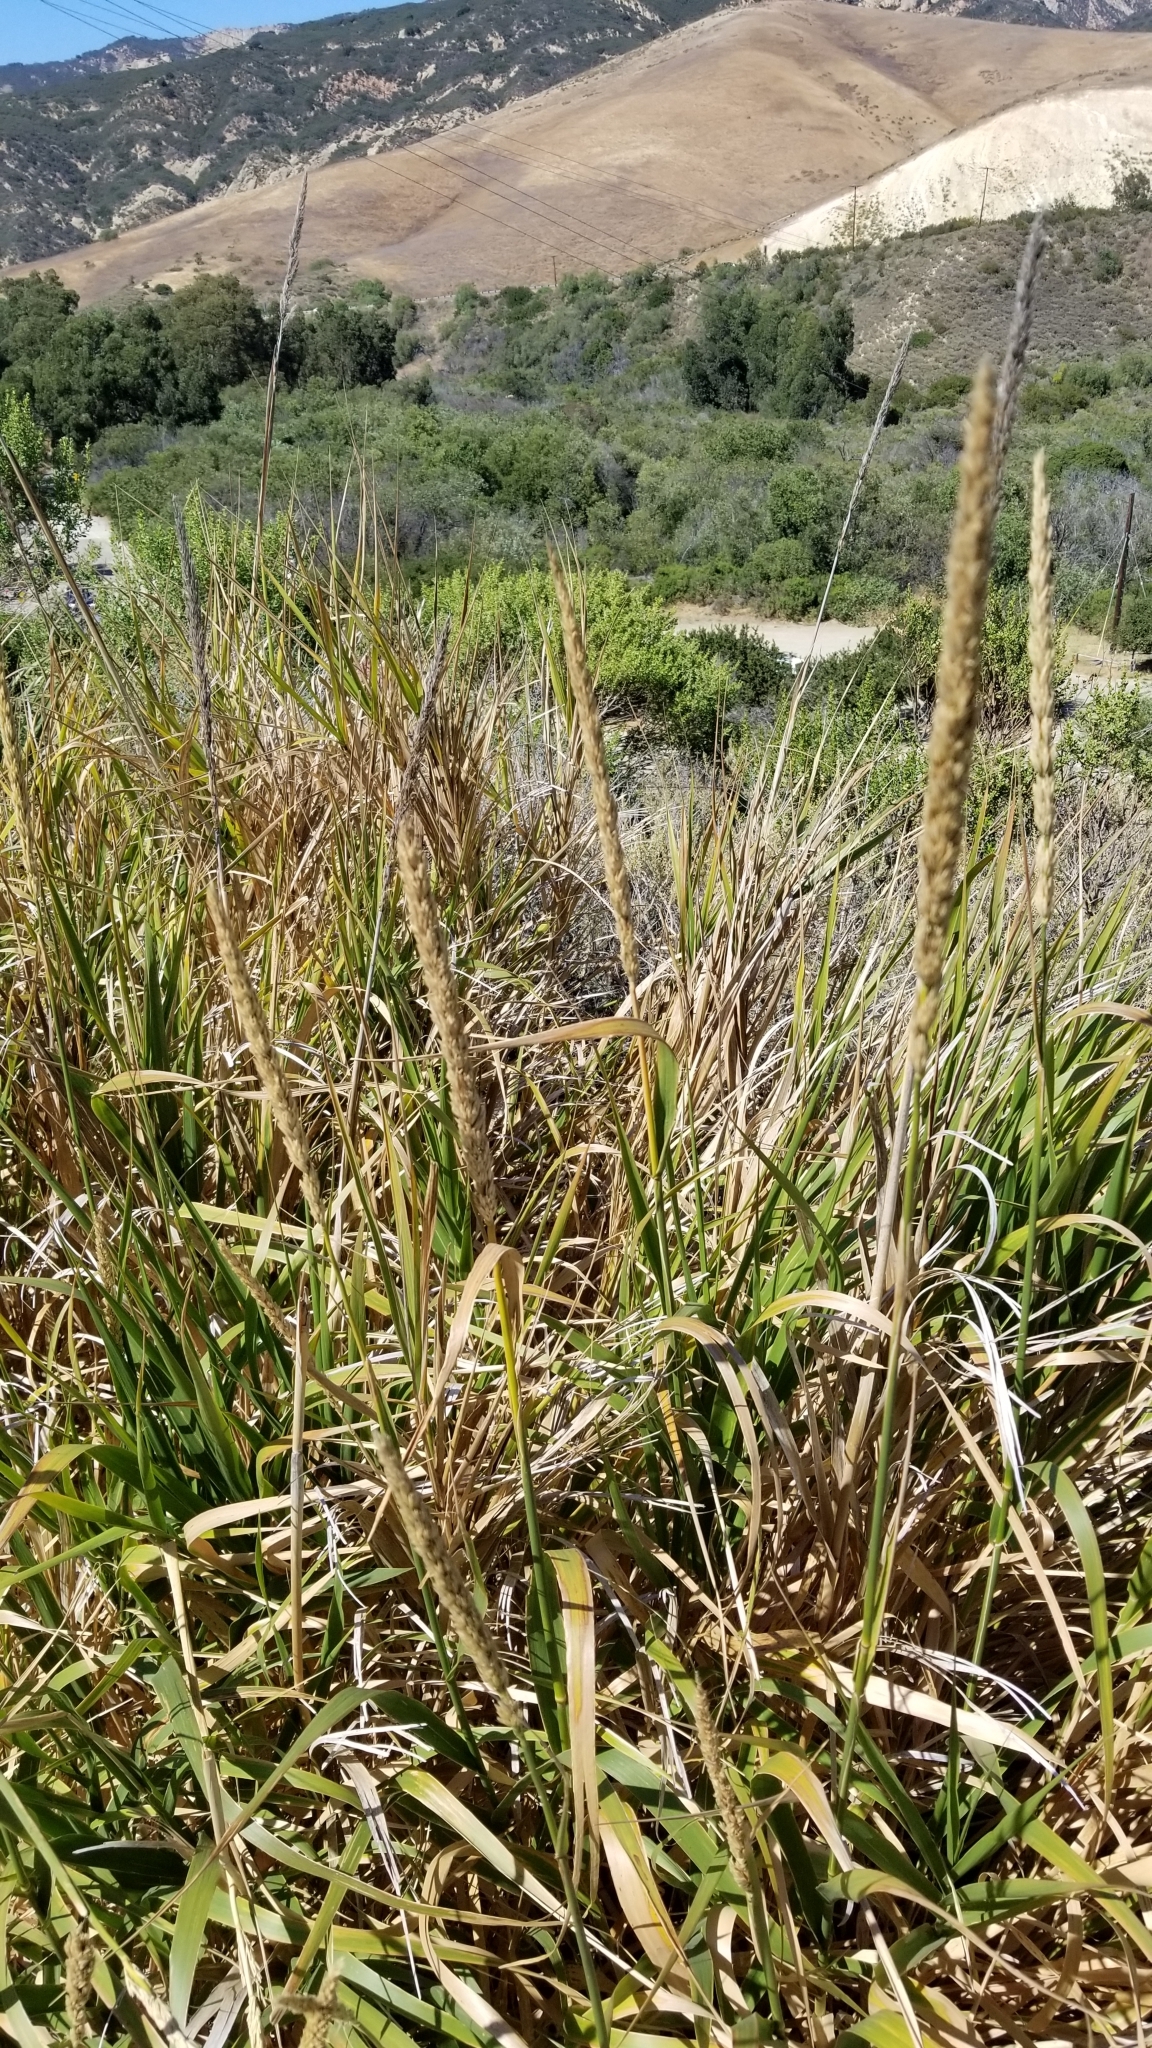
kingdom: Plantae
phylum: Tracheophyta
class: Liliopsida
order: Poales
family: Poaceae
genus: Leymus
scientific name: Leymus condensatus
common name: Giant wild rye
